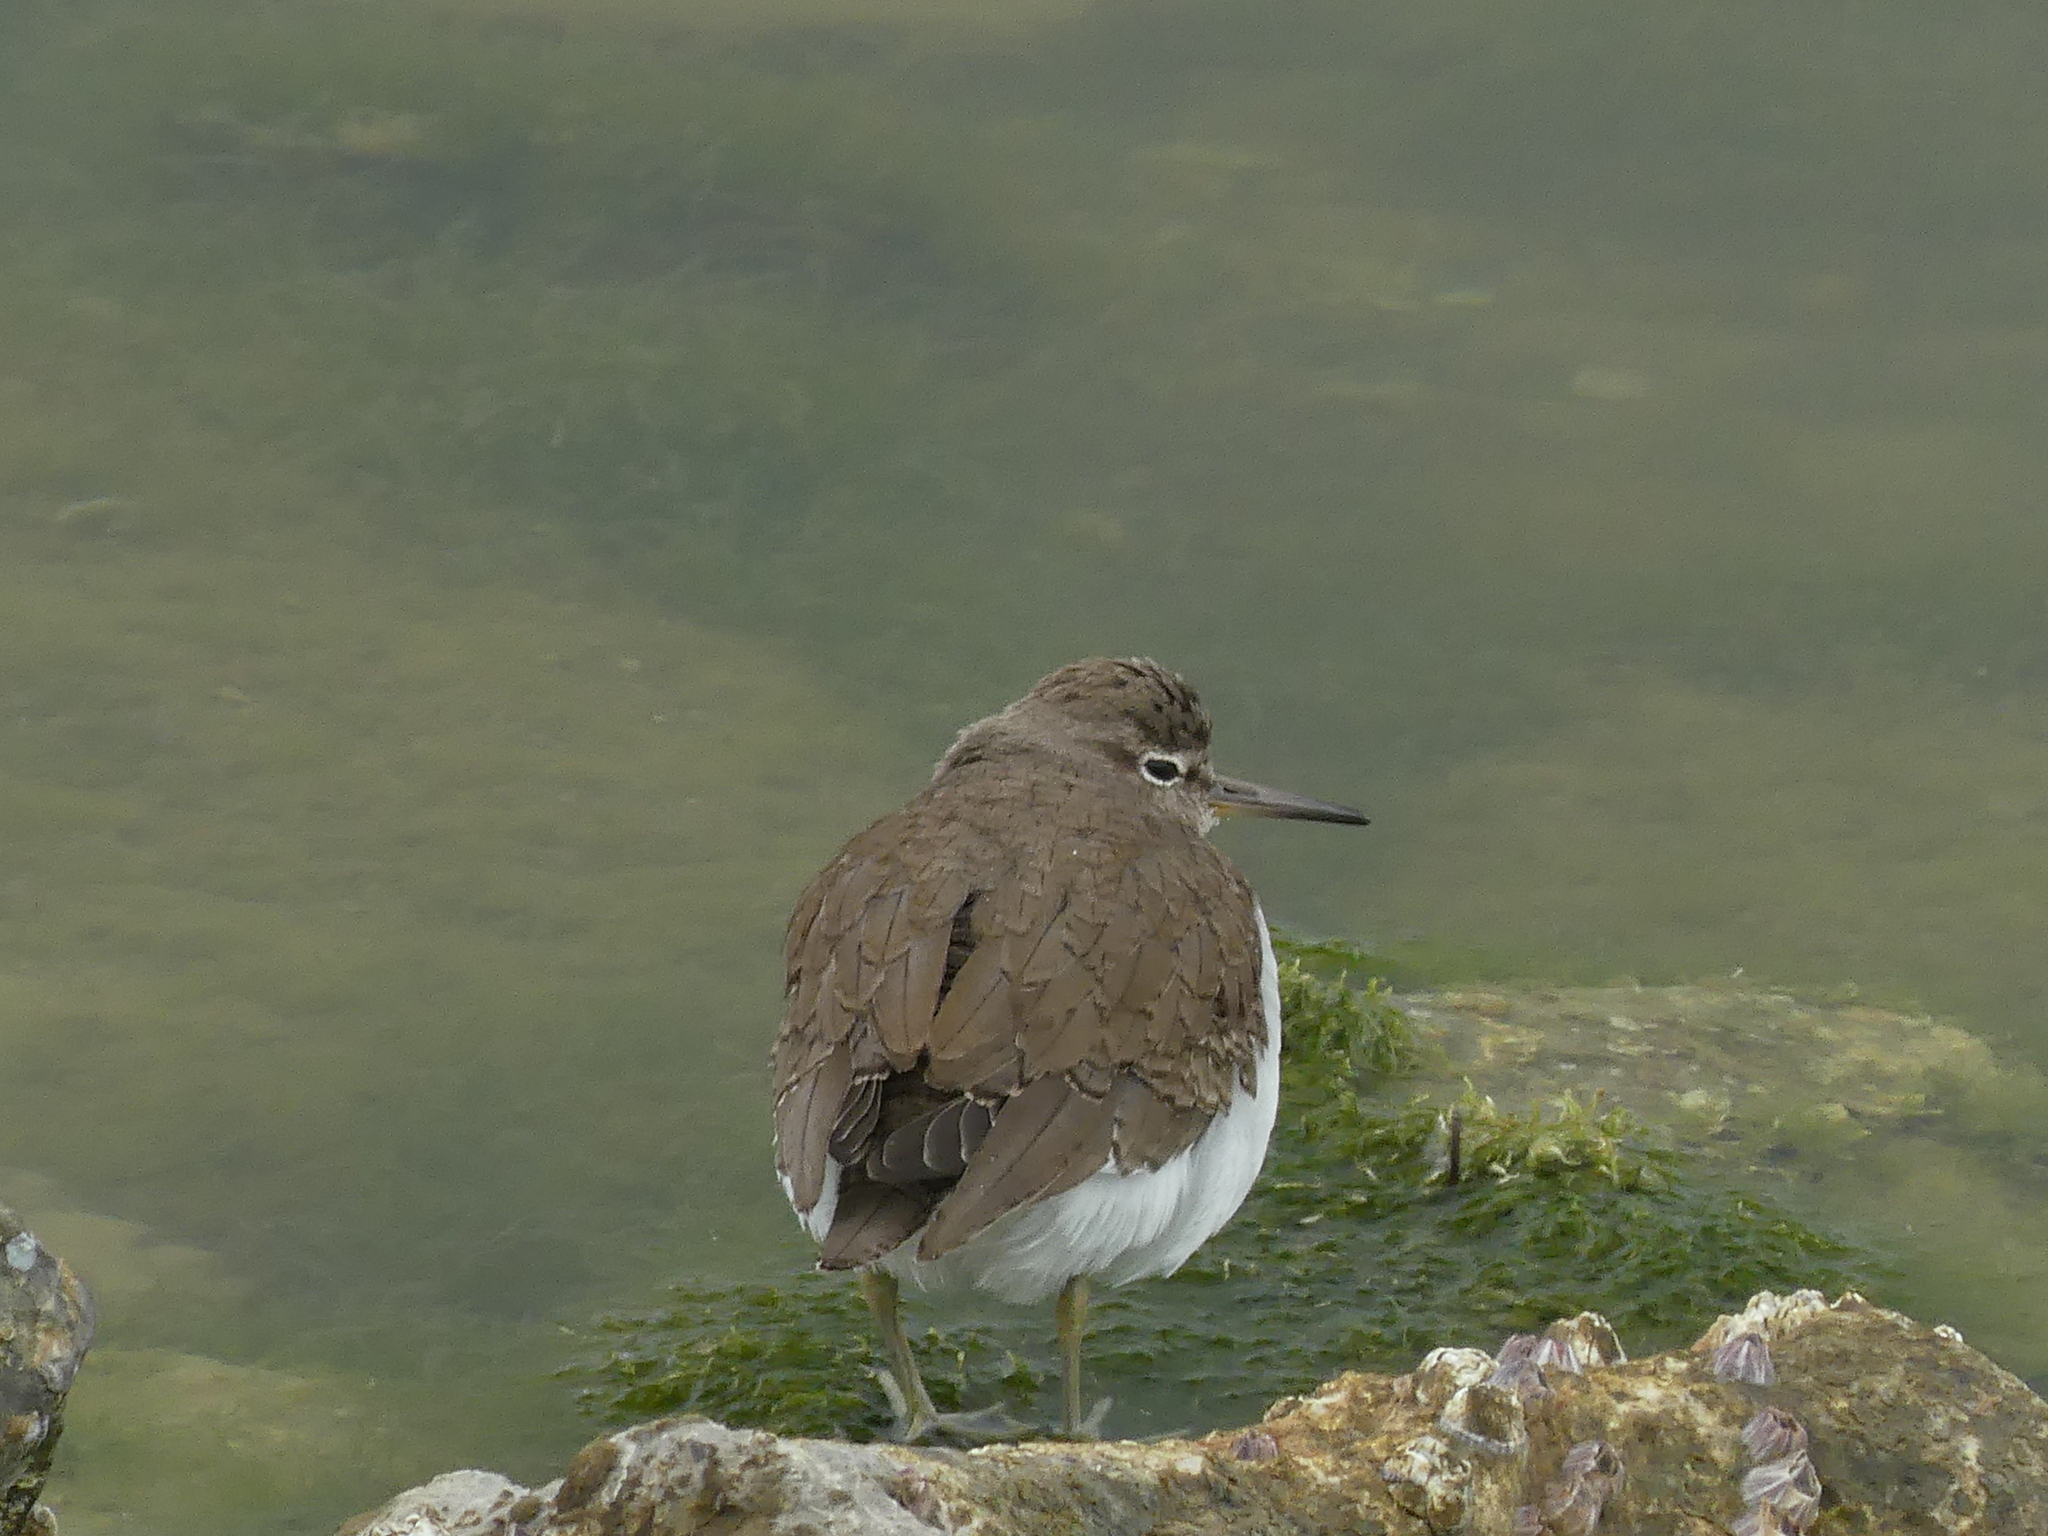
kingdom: Animalia
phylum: Chordata
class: Aves
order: Charadriiformes
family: Scolopacidae
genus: Actitis
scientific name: Actitis hypoleucos
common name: Common sandpiper
